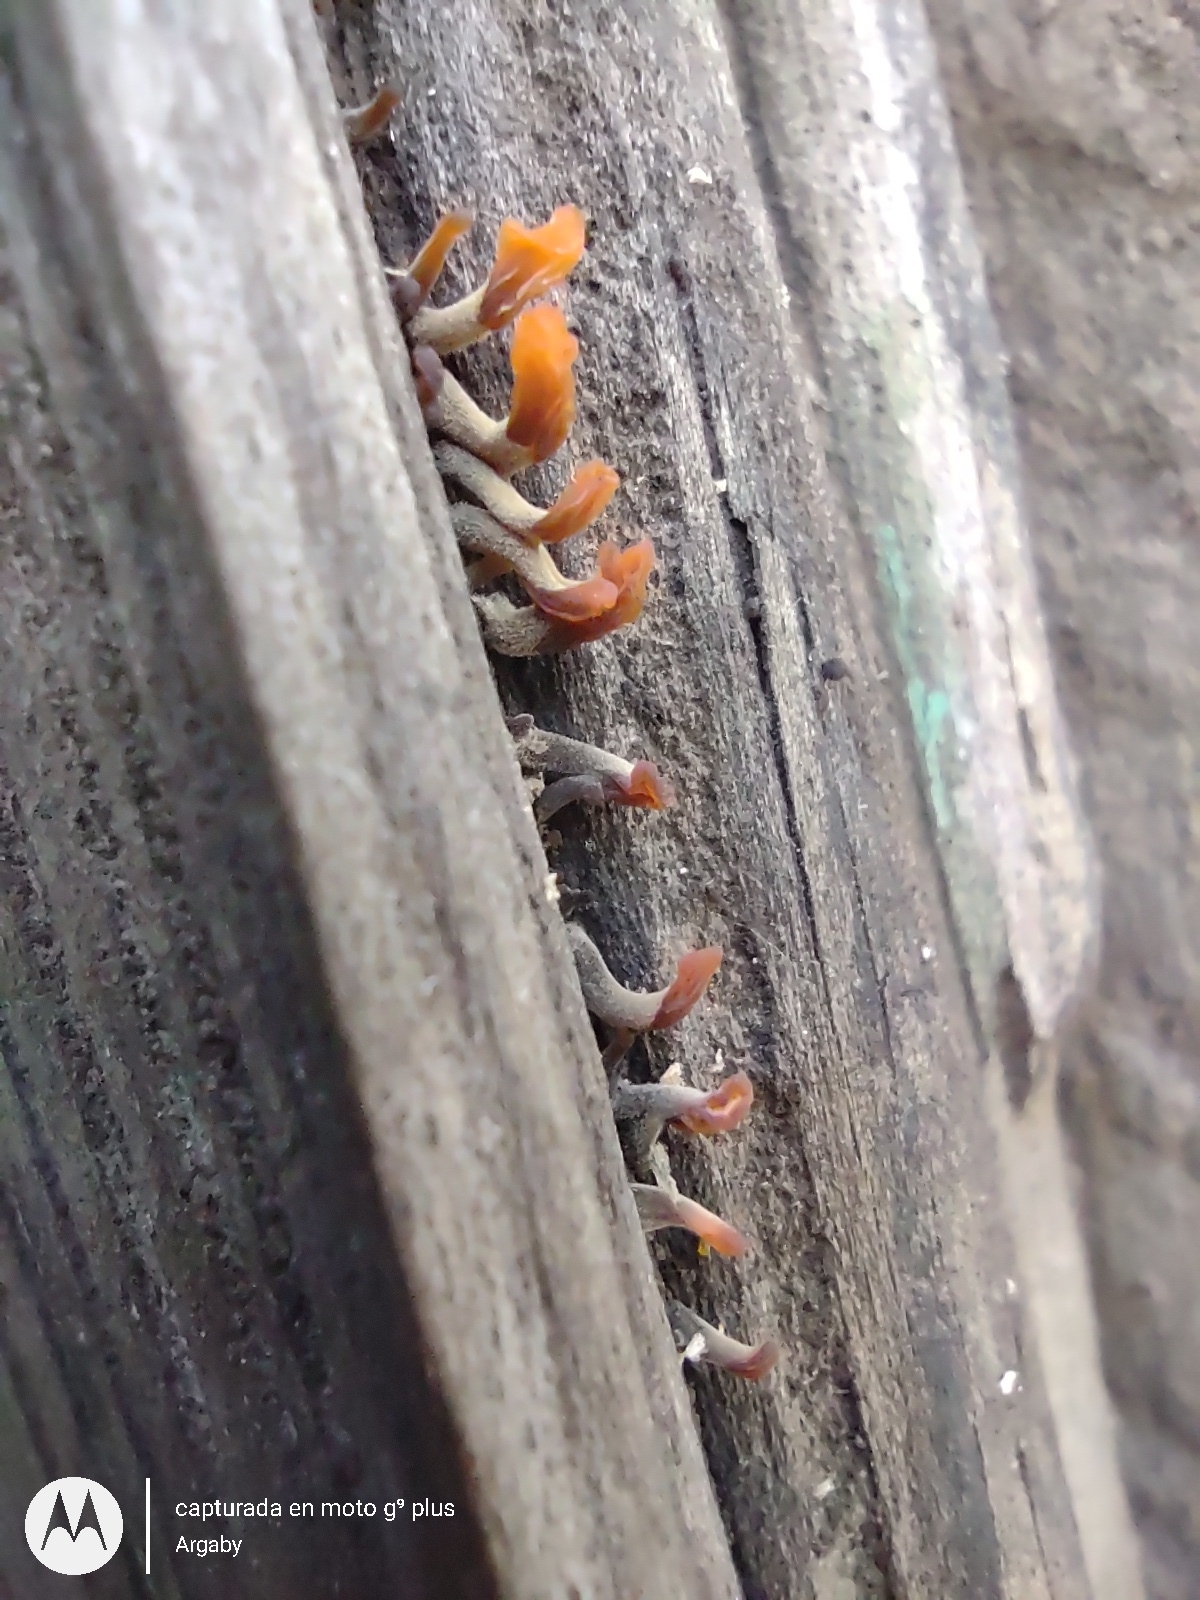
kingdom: Fungi
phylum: Basidiomycota
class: Dacrymycetes
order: Dacrymycetales
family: Dacrymycetaceae
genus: Dacrymyces
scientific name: Dacrymyces spathularius
